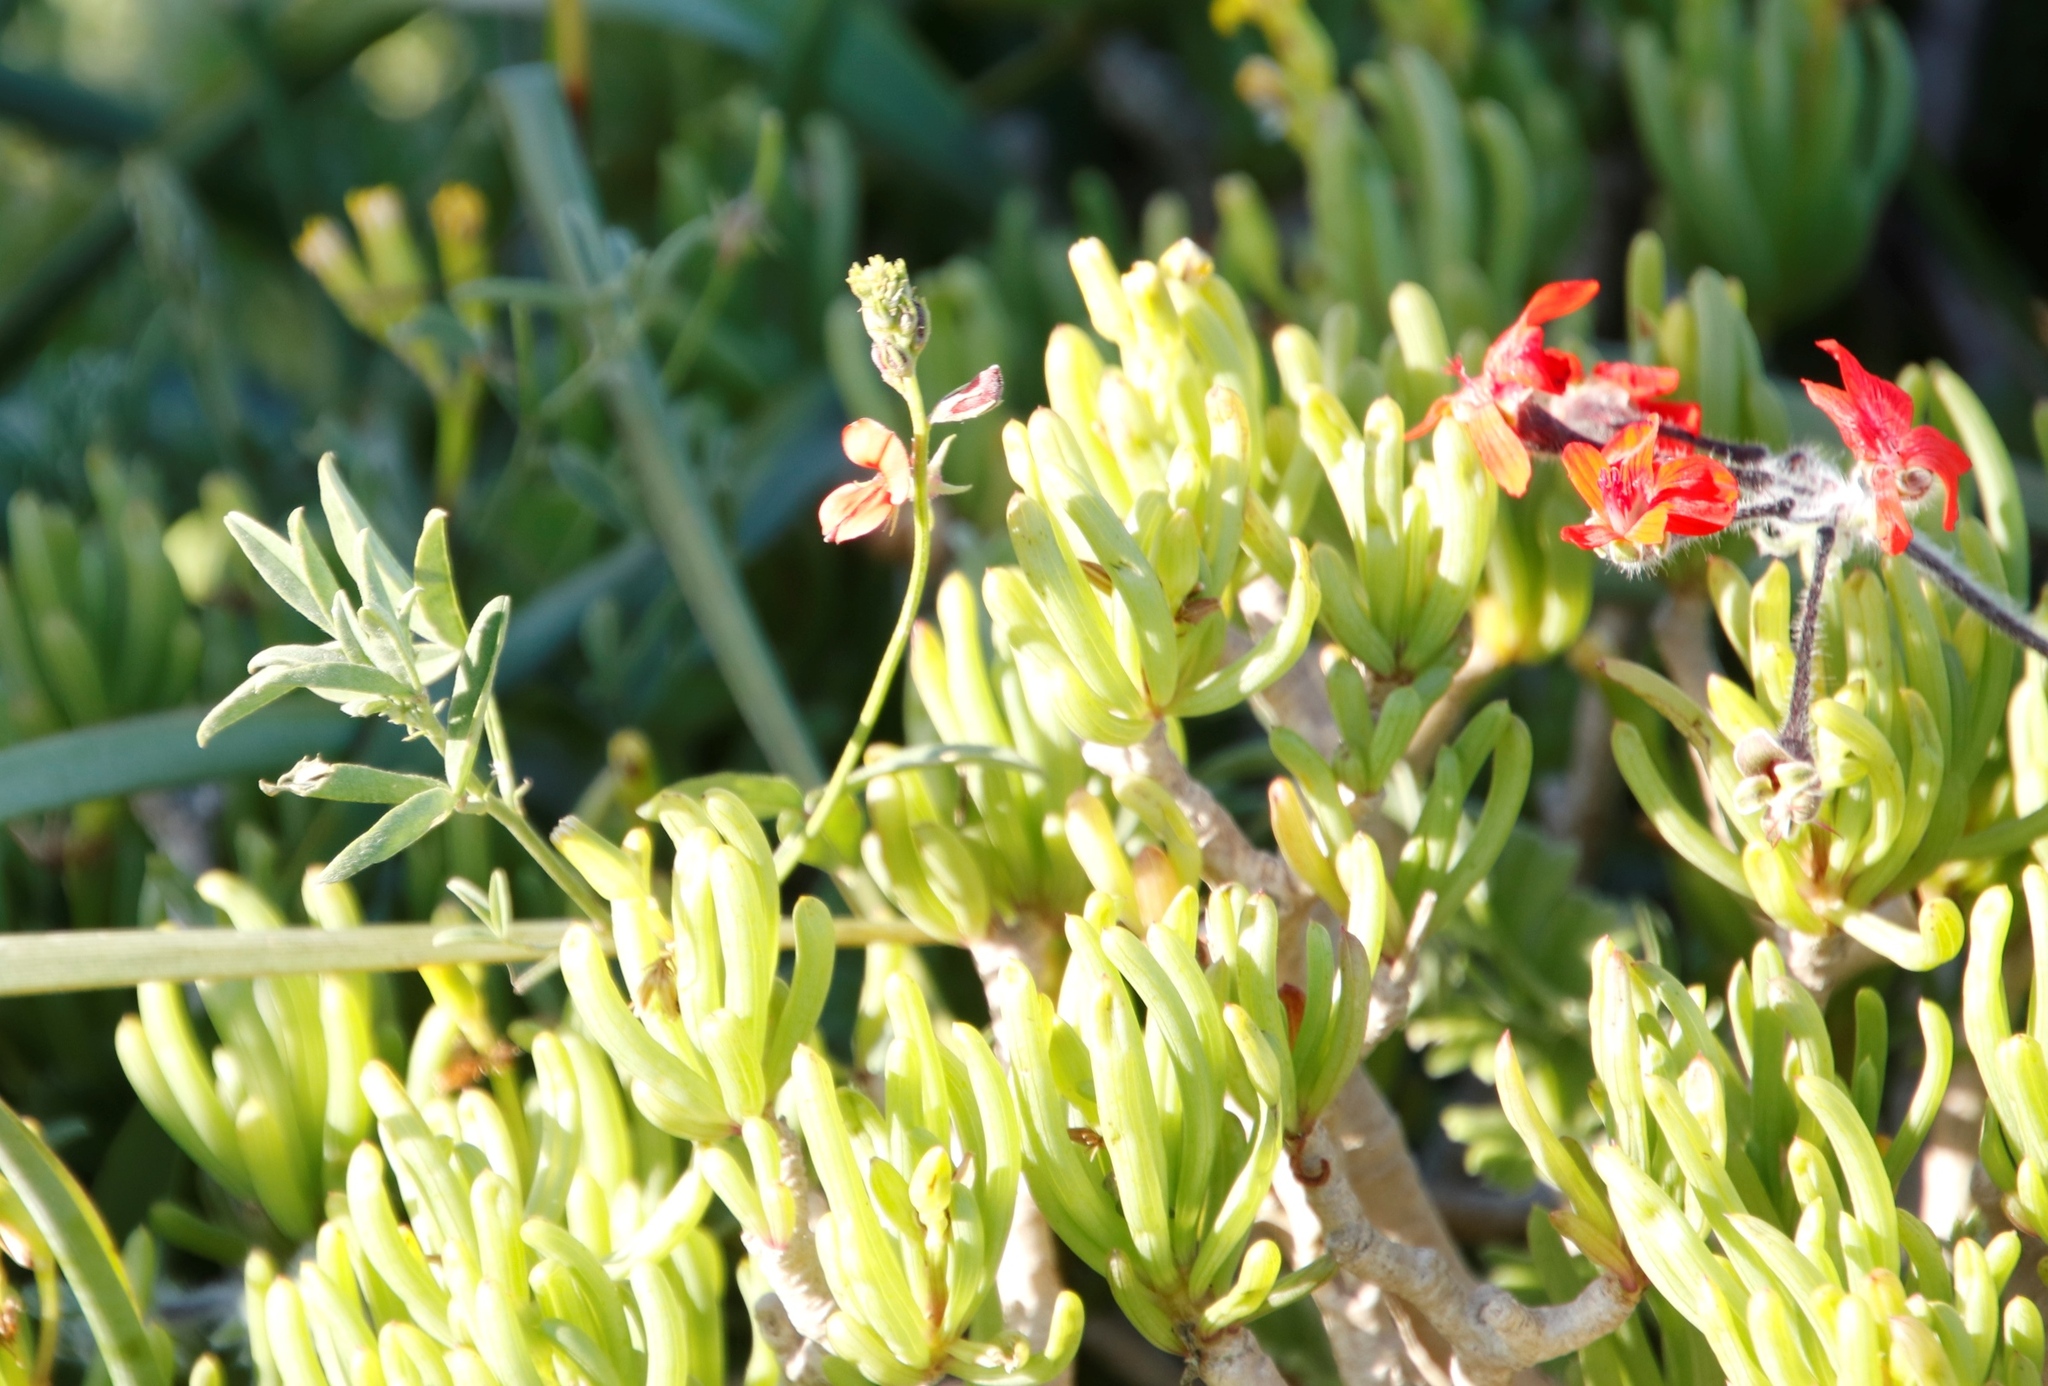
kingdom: Plantae
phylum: Tracheophyta
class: Magnoliopsida
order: Fabales
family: Fabaceae
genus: Indigofera
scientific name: Indigofera
